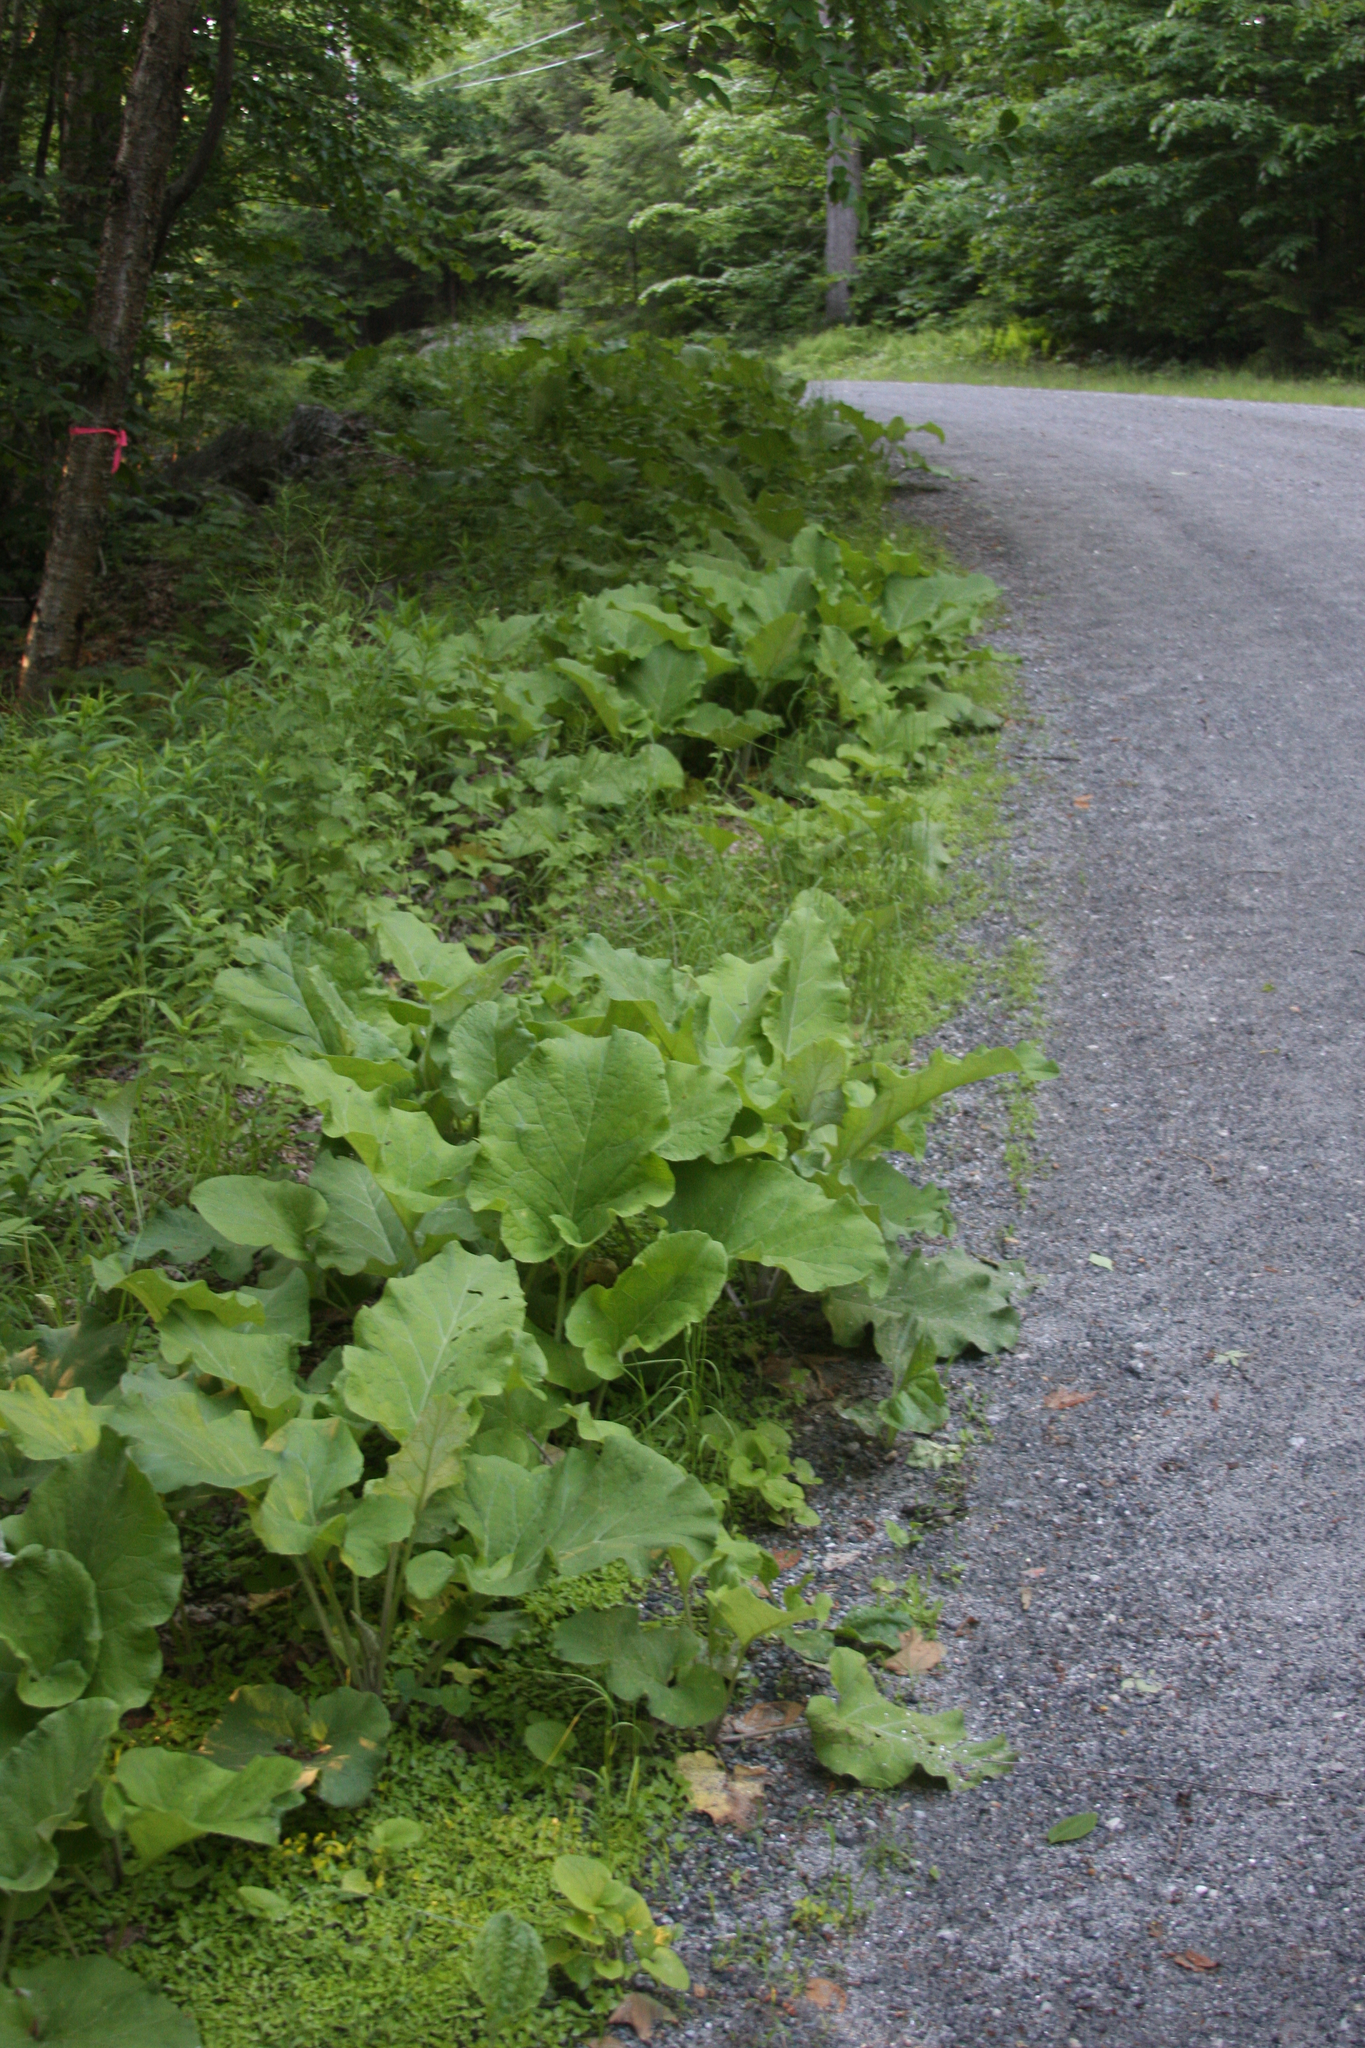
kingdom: Plantae
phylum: Tracheophyta
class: Magnoliopsida
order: Asterales
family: Asteraceae
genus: Arctium
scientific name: Arctium
